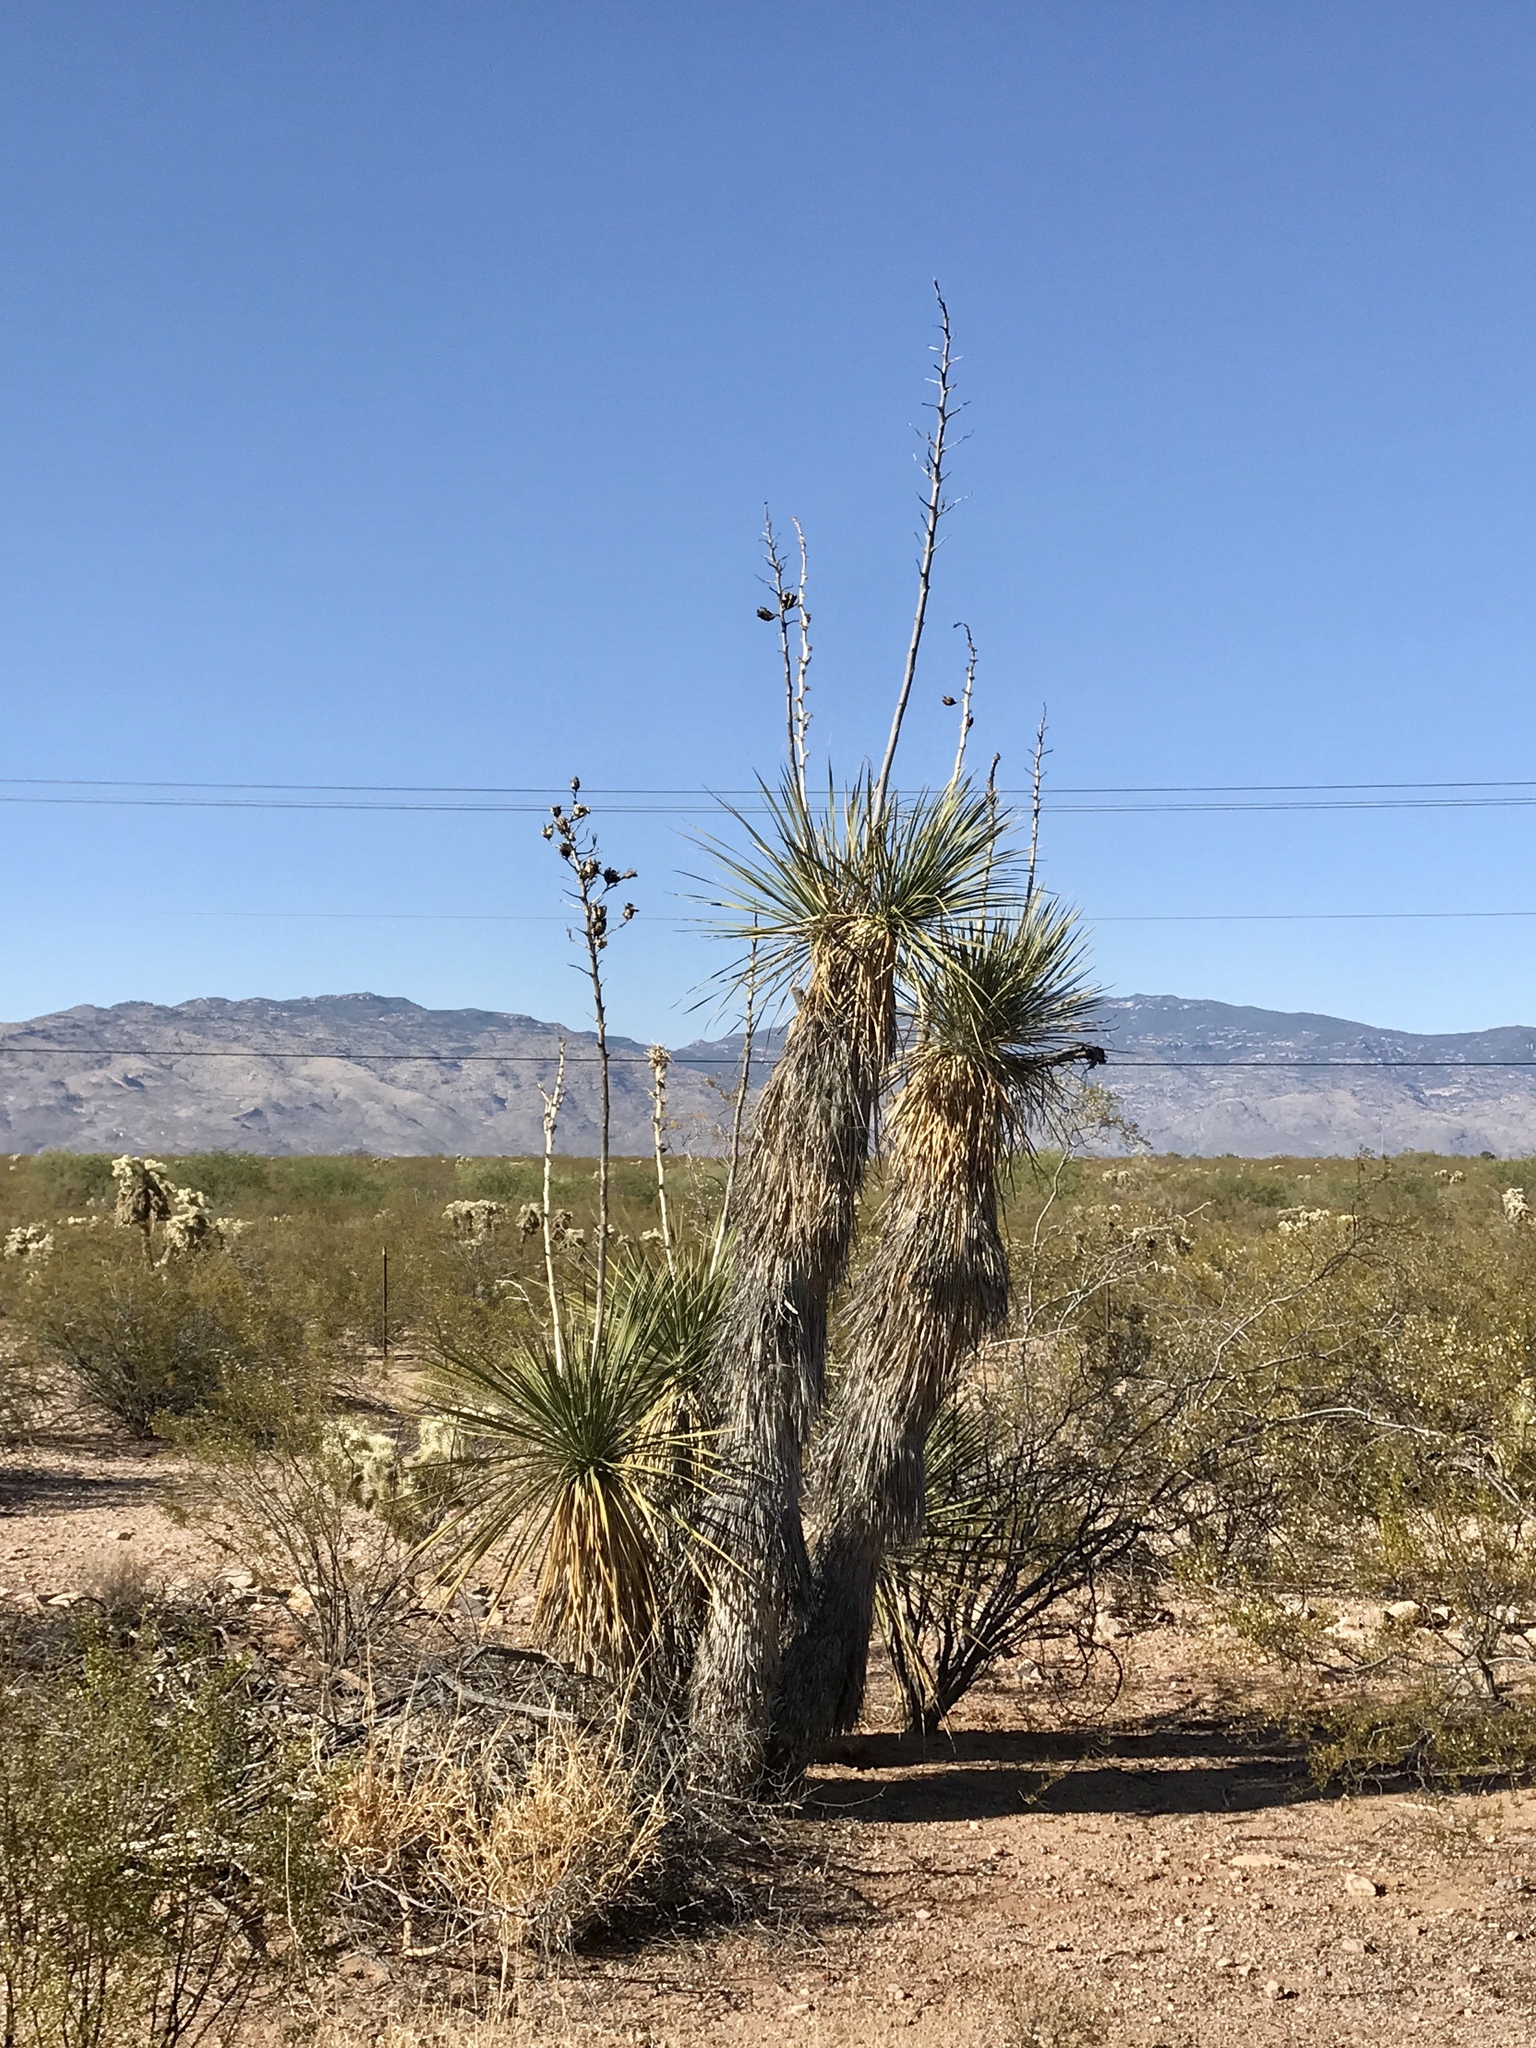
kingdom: Plantae
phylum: Tracheophyta
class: Liliopsida
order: Asparagales
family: Asparagaceae
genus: Yucca
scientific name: Yucca elata
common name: Palmella
